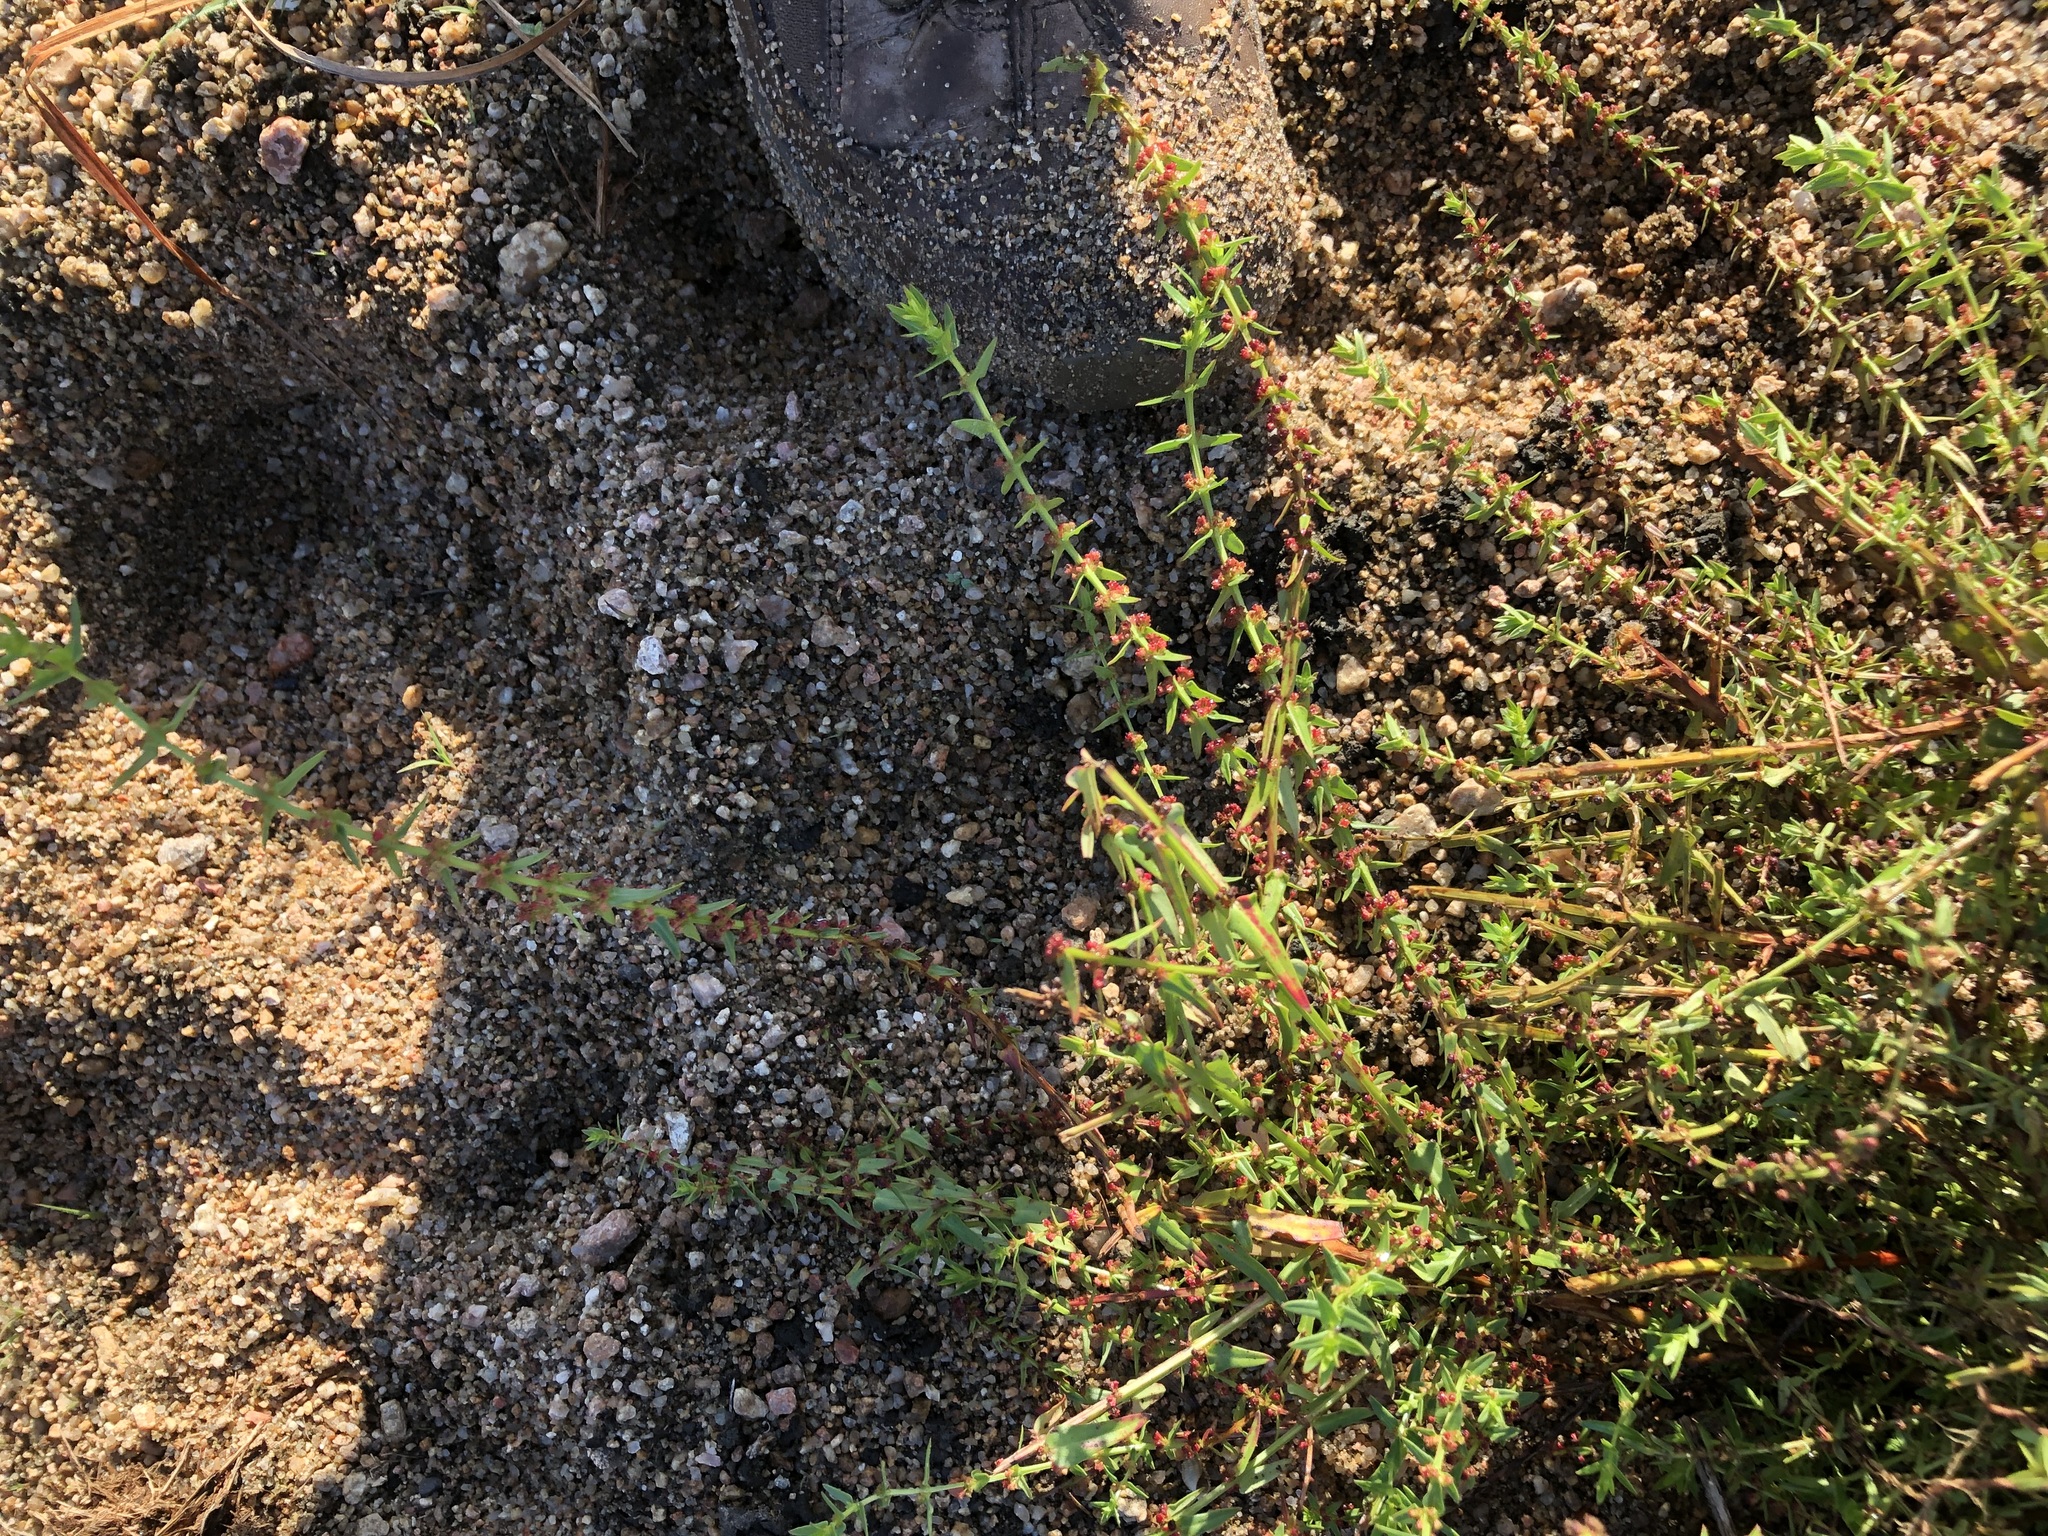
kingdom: Plantae
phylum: Tracheophyta
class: Magnoliopsida
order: Myrtales
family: Lythraceae
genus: Ammannia
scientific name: Ammannia prieuriana
